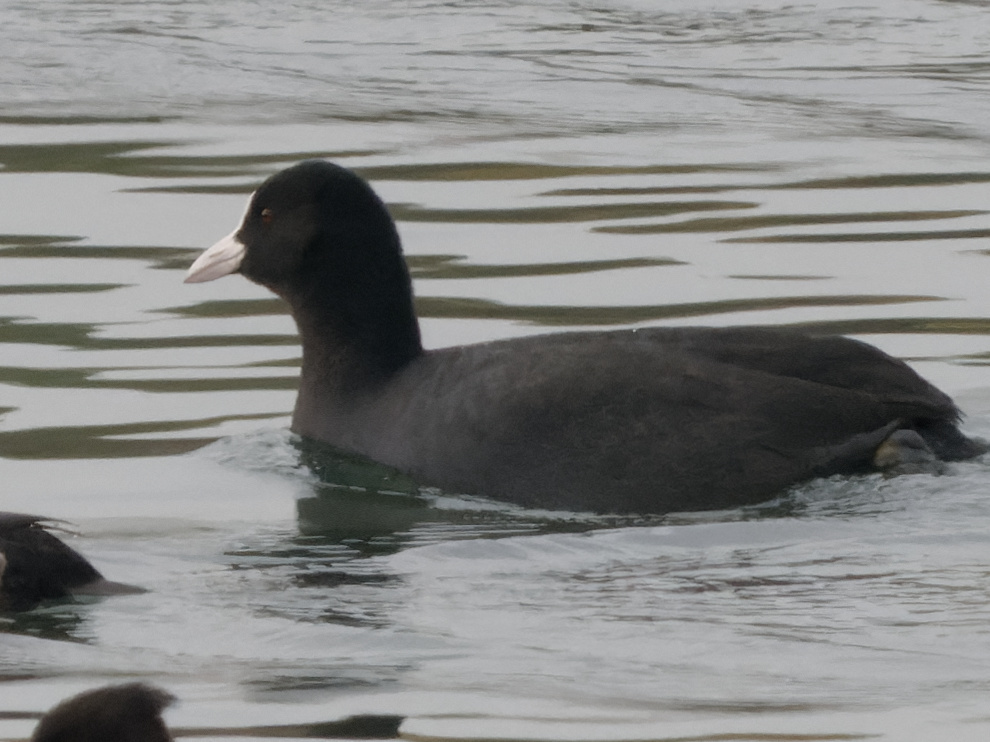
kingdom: Animalia
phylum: Chordata
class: Aves
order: Gruiformes
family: Rallidae
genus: Fulica
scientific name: Fulica atra
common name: Eurasian coot
